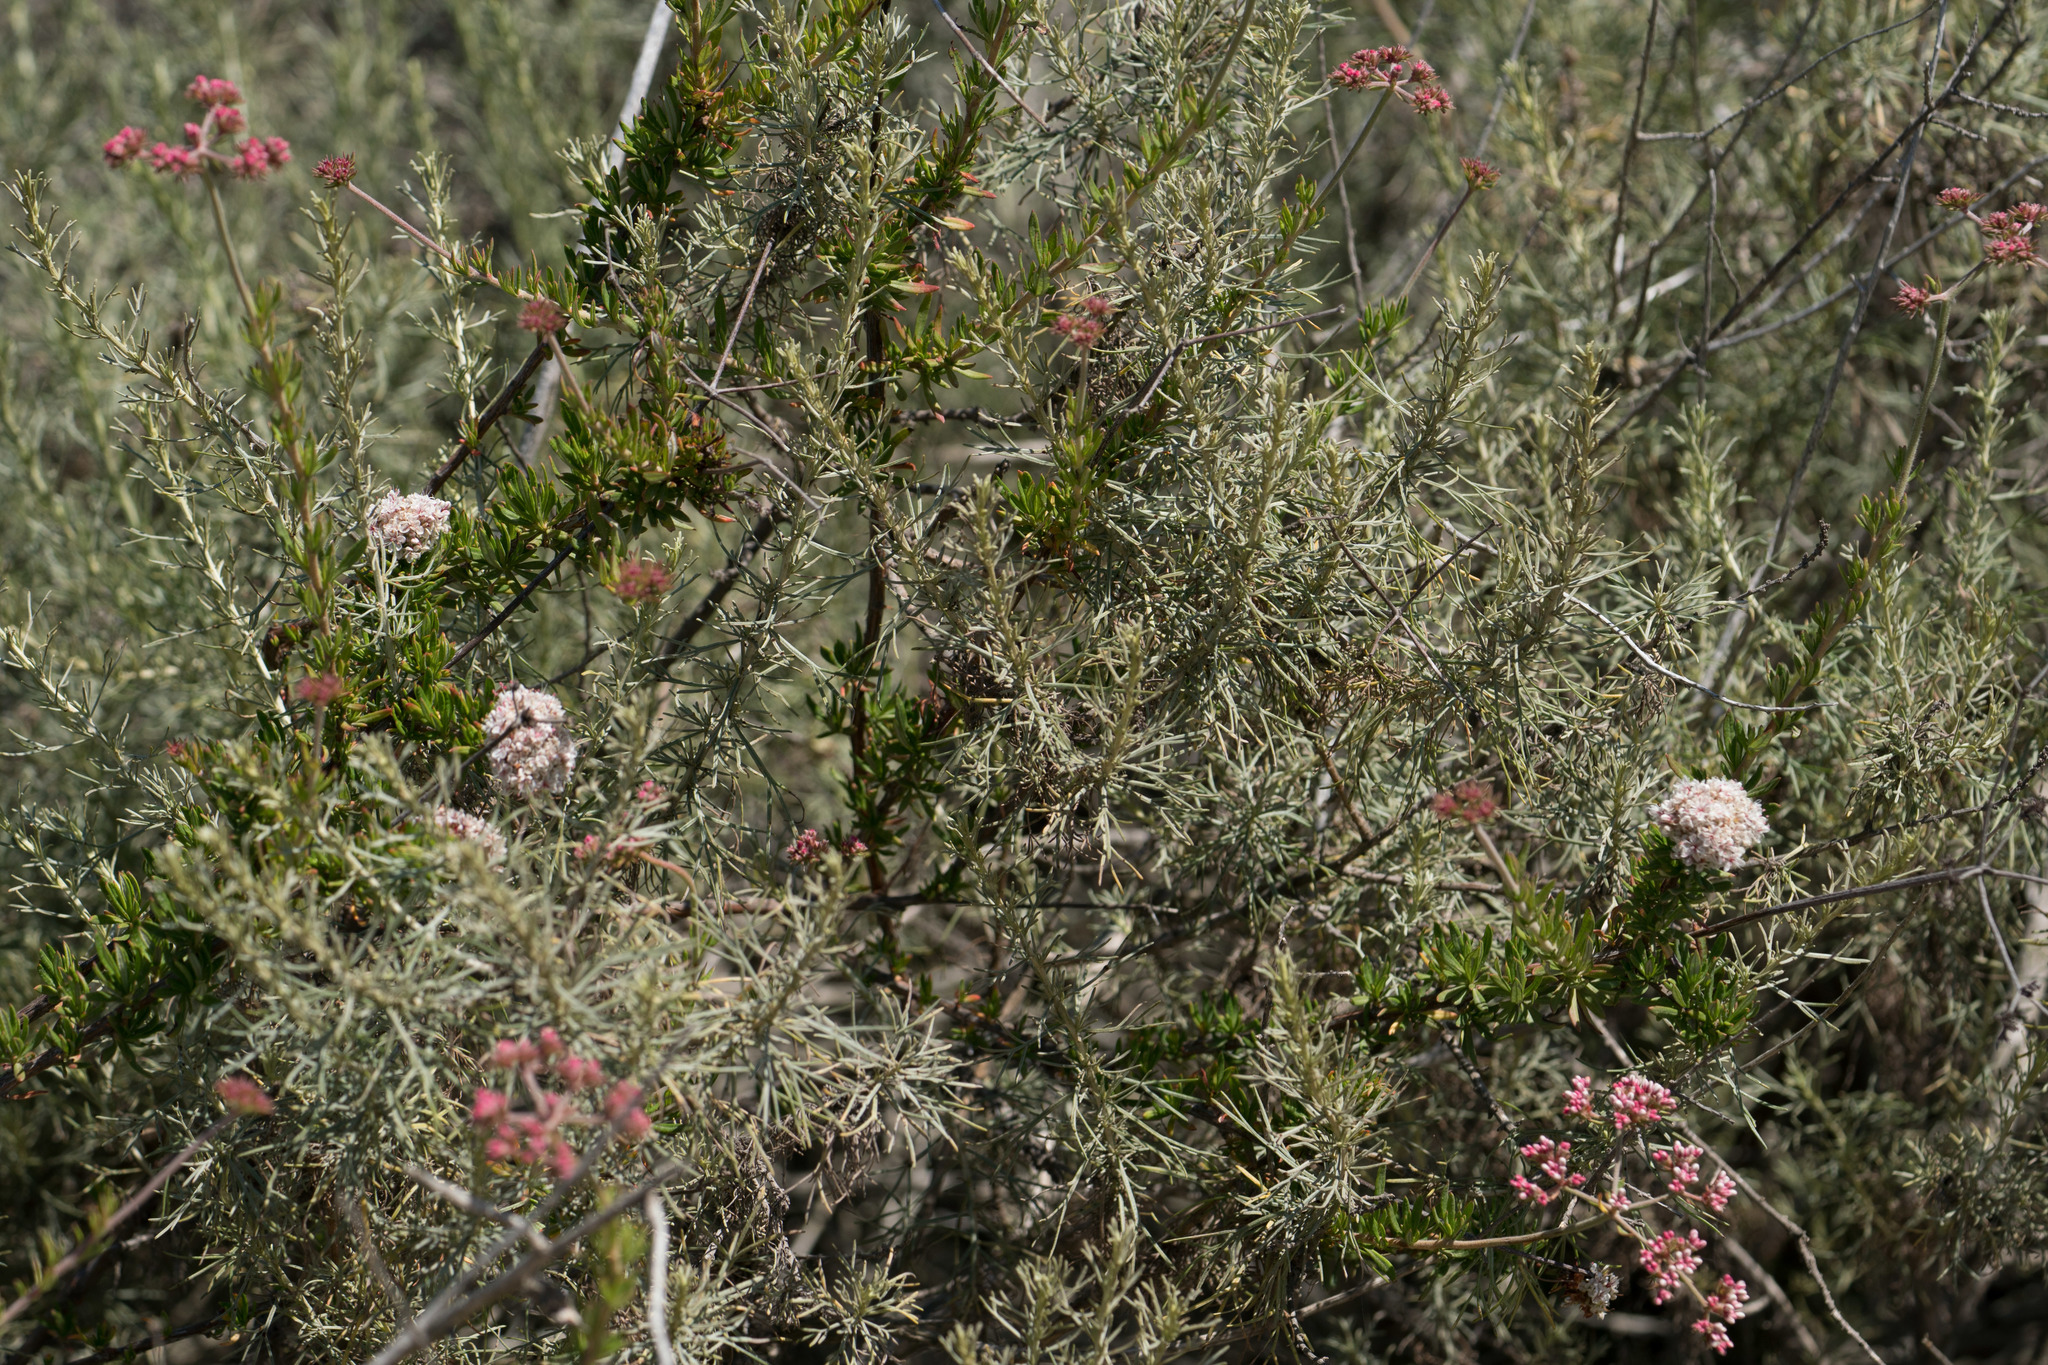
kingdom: Plantae
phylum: Tracheophyta
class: Magnoliopsida
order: Caryophyllales
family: Polygonaceae
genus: Eriogonum
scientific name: Eriogonum fasciculatum
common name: California wild buckwheat
